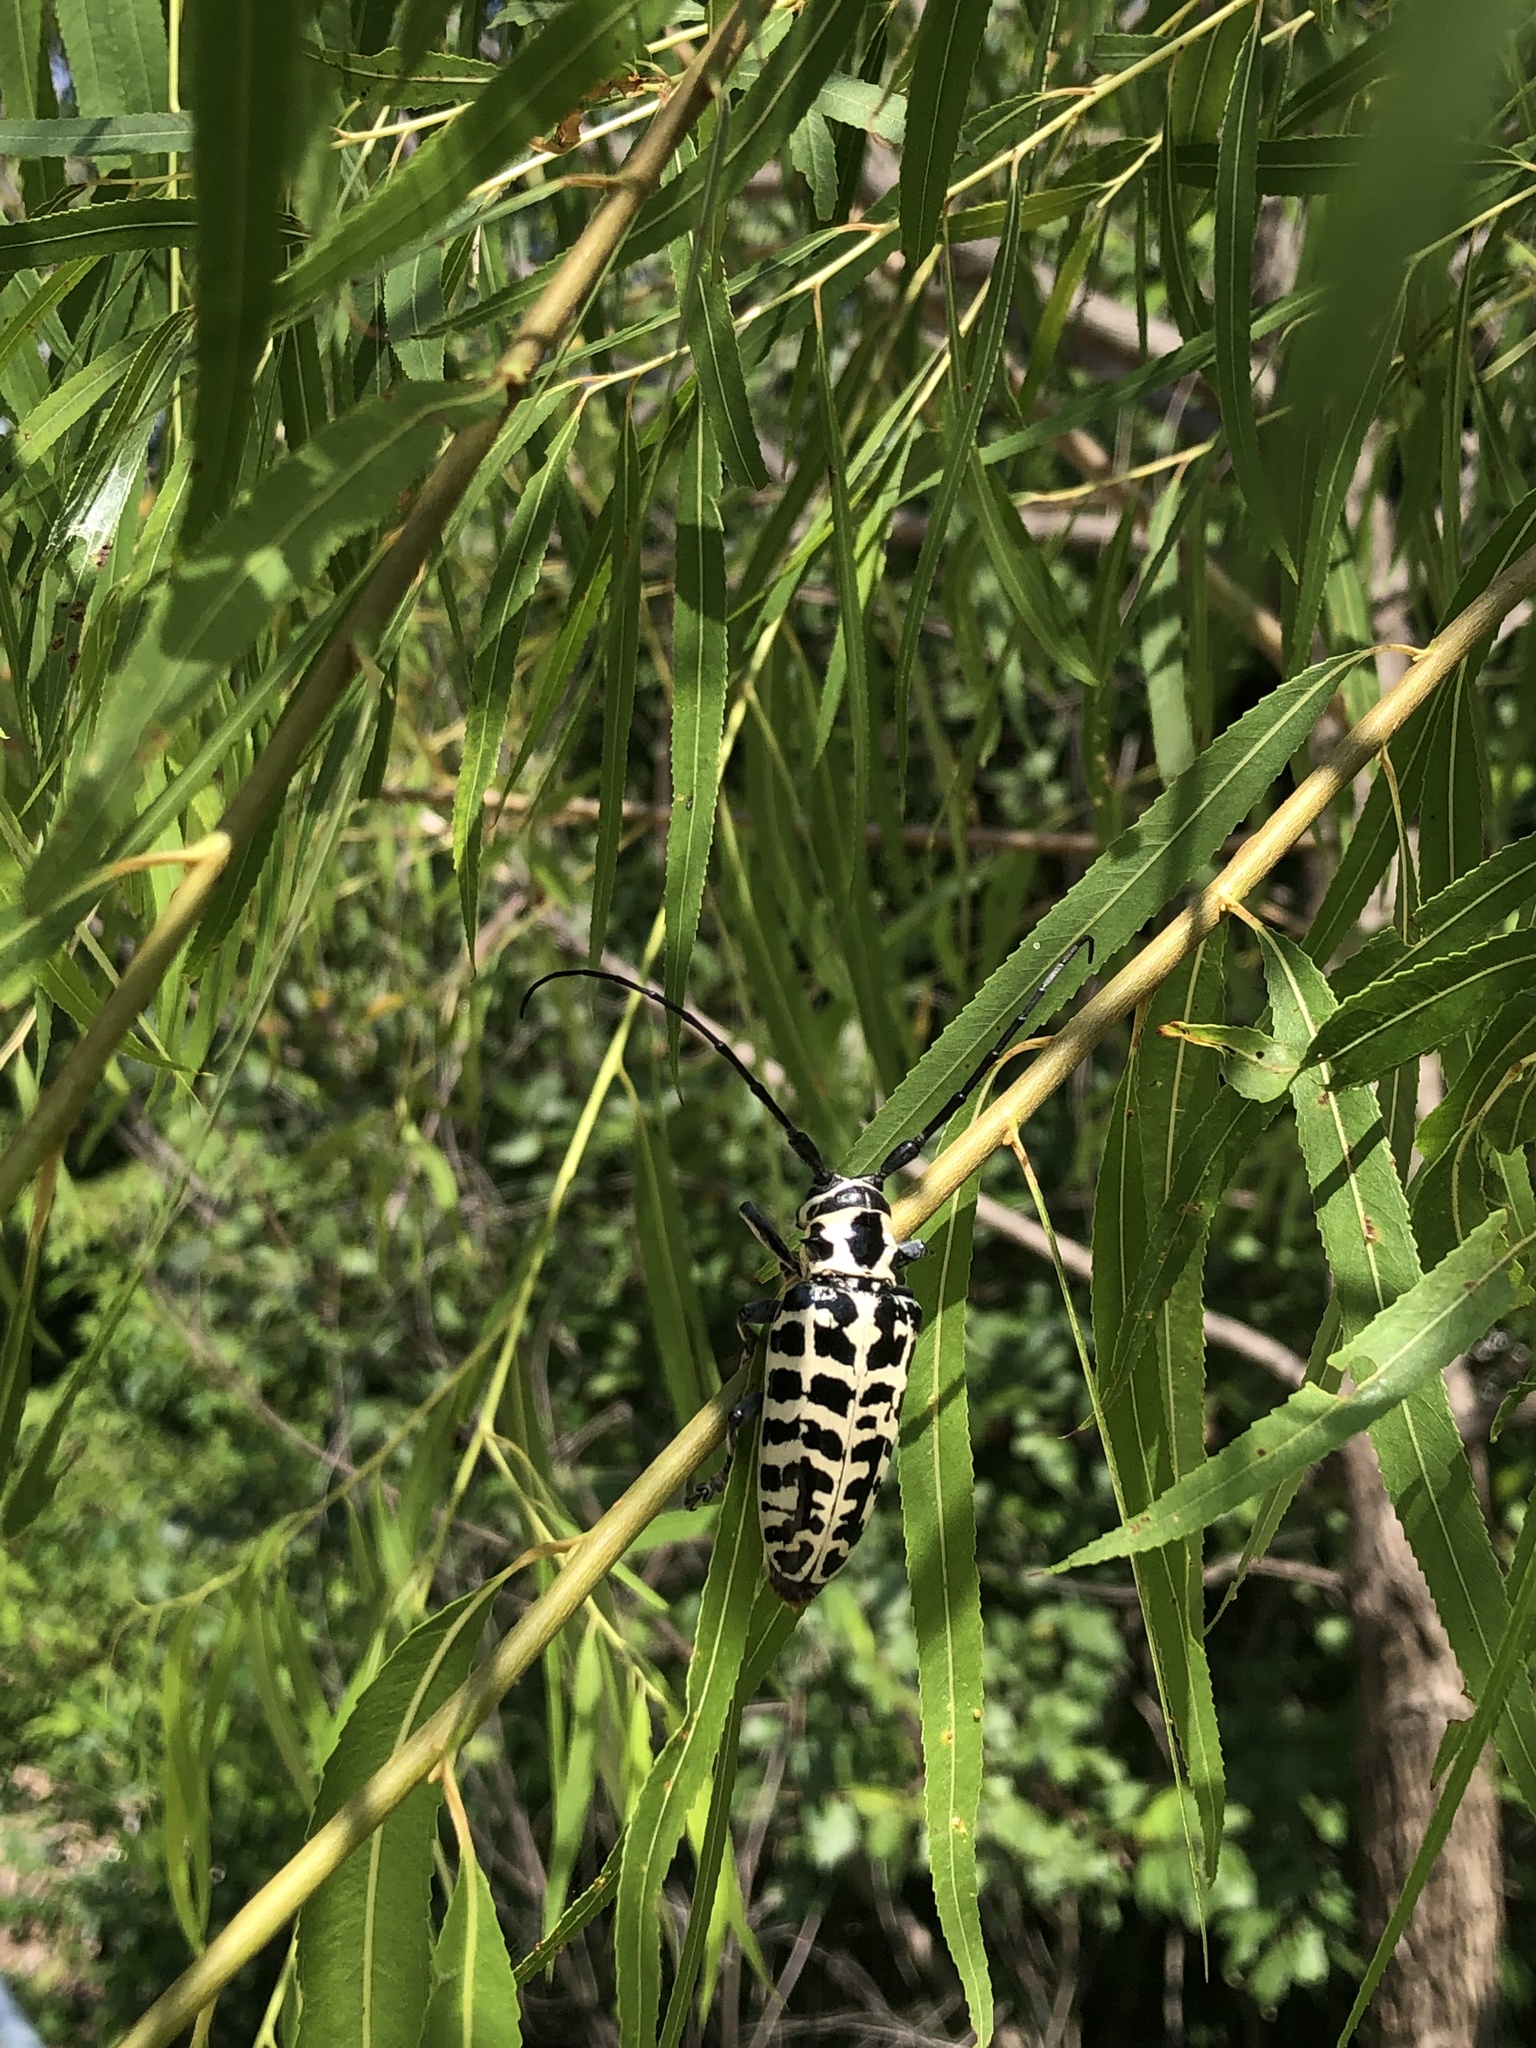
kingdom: Animalia
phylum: Arthropoda
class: Insecta
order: Coleoptera
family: Cerambycidae
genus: Plectrodera
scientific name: Plectrodera scalator
